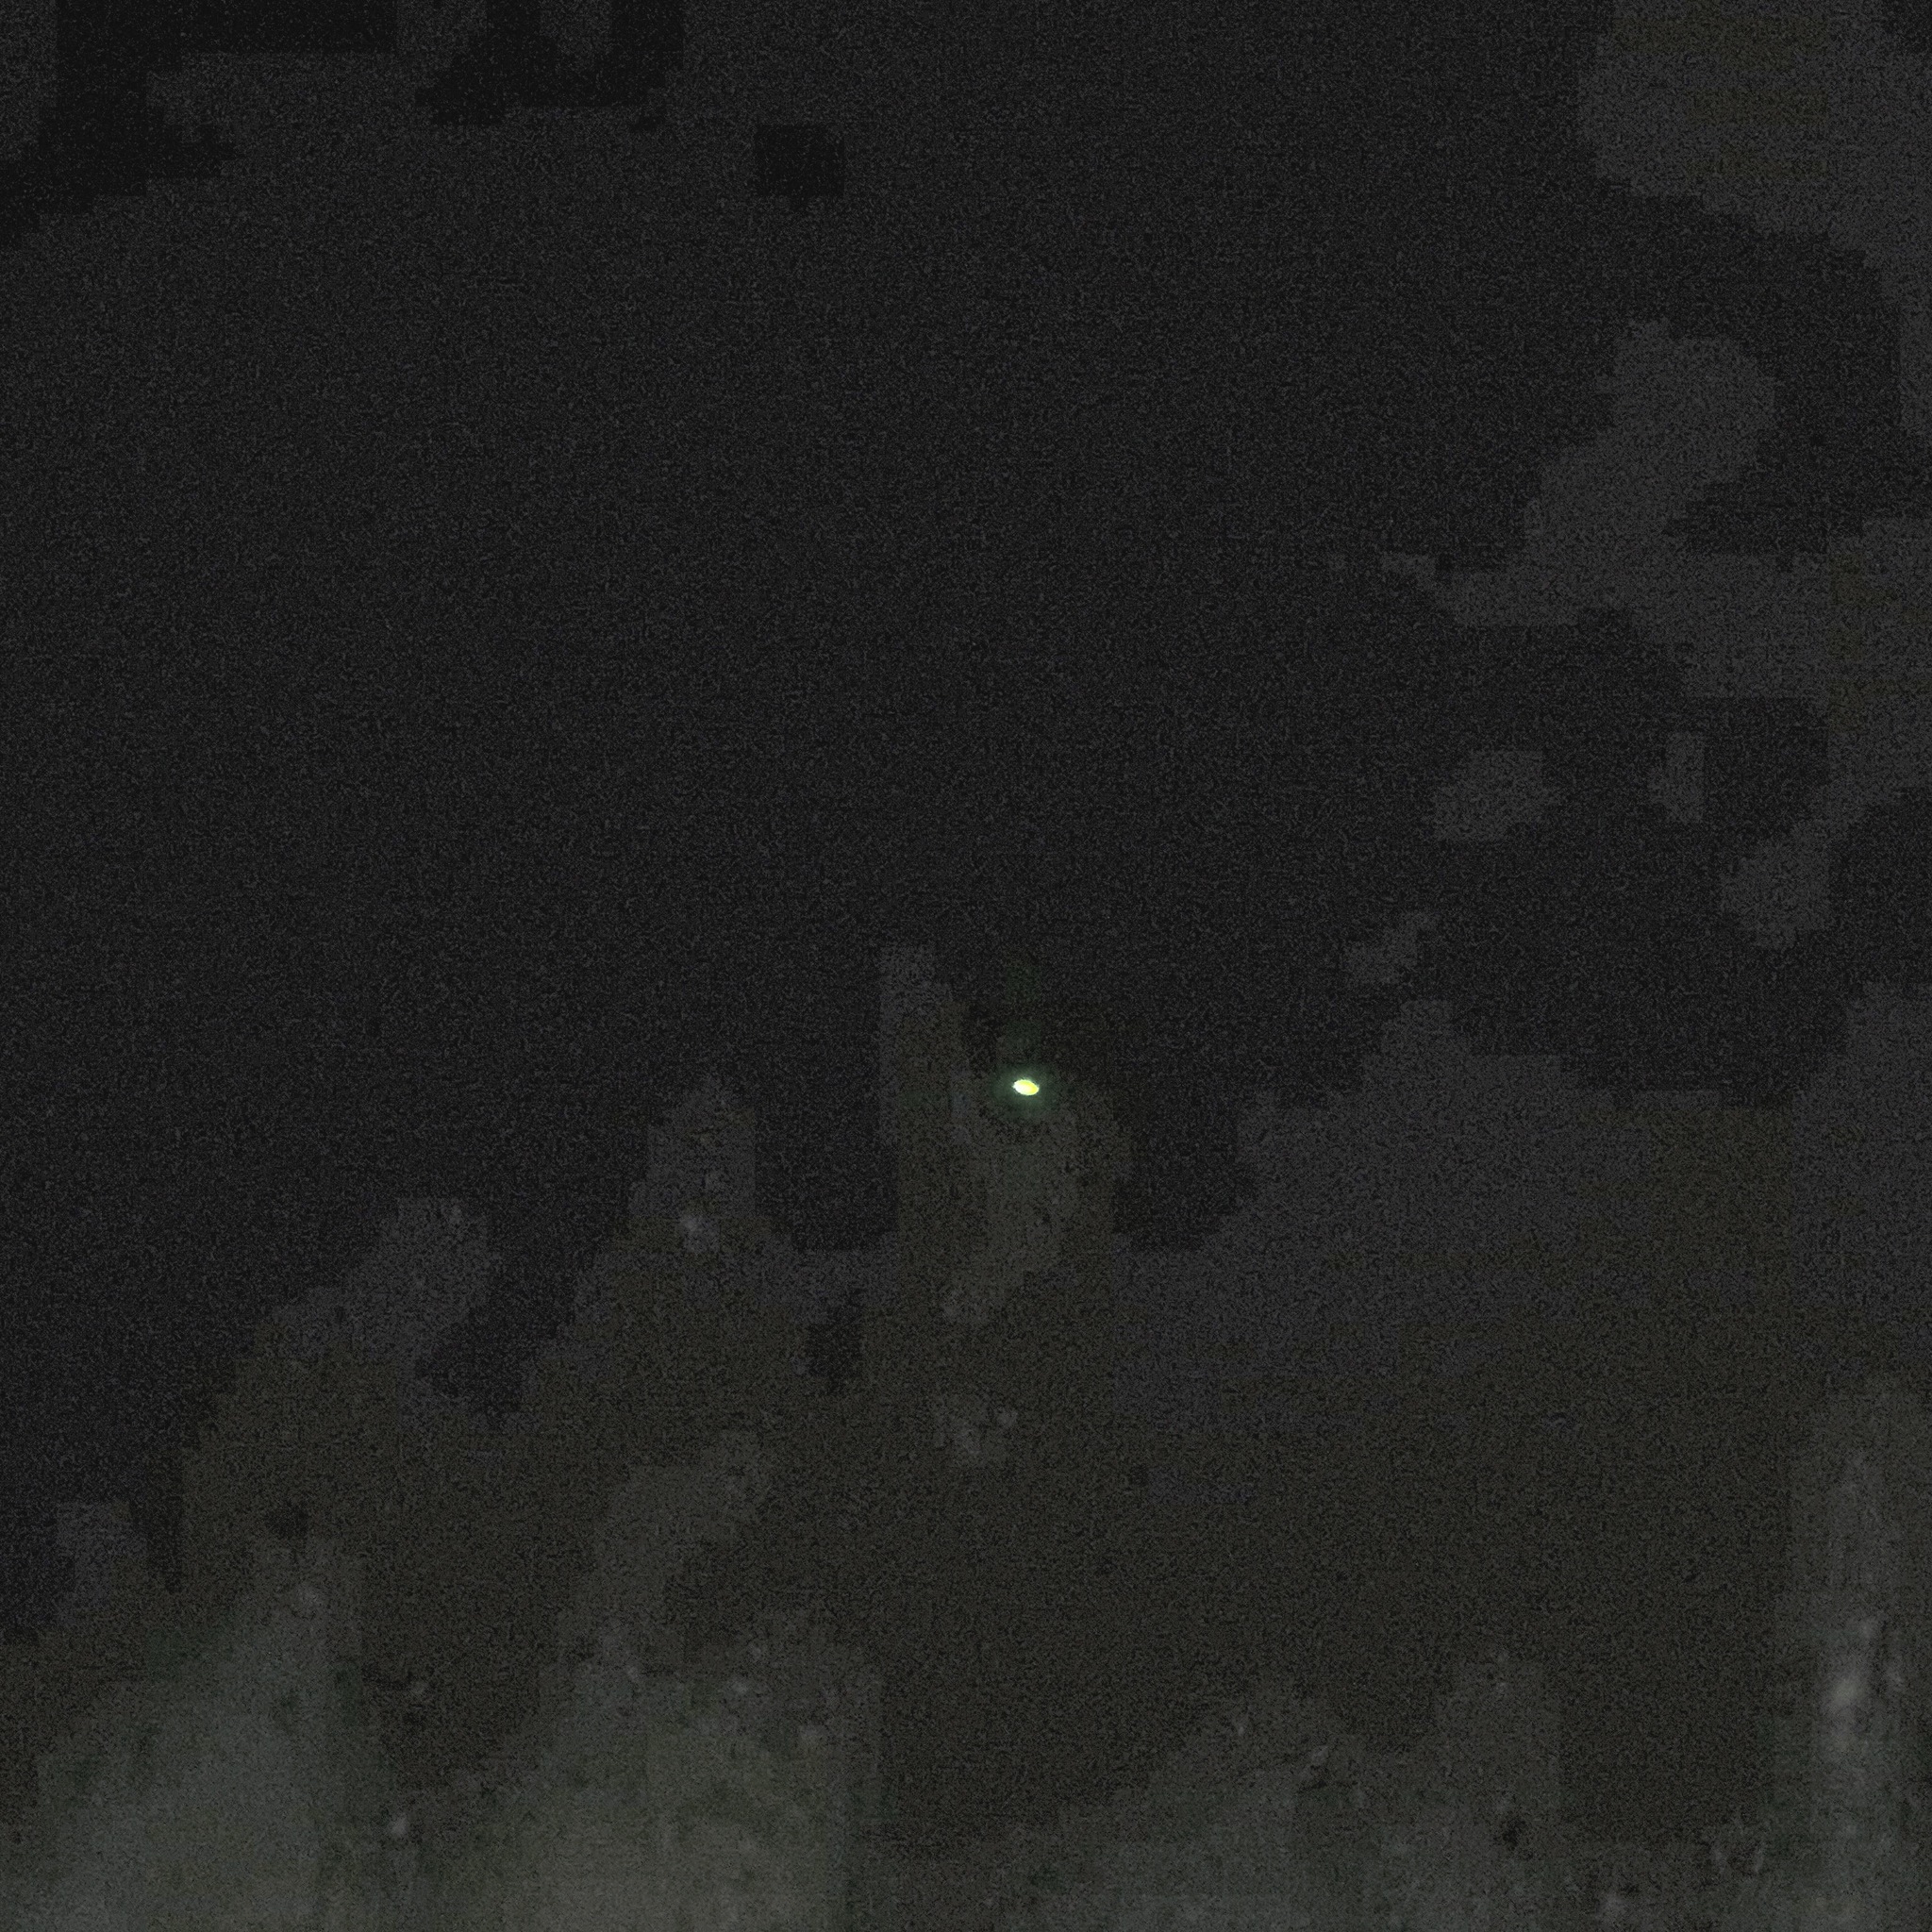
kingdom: Animalia
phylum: Chordata
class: Mammalia
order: Lagomorpha
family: Leporidae
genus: Lepus
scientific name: Lepus californicus
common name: Black-tailed jackrabbit
